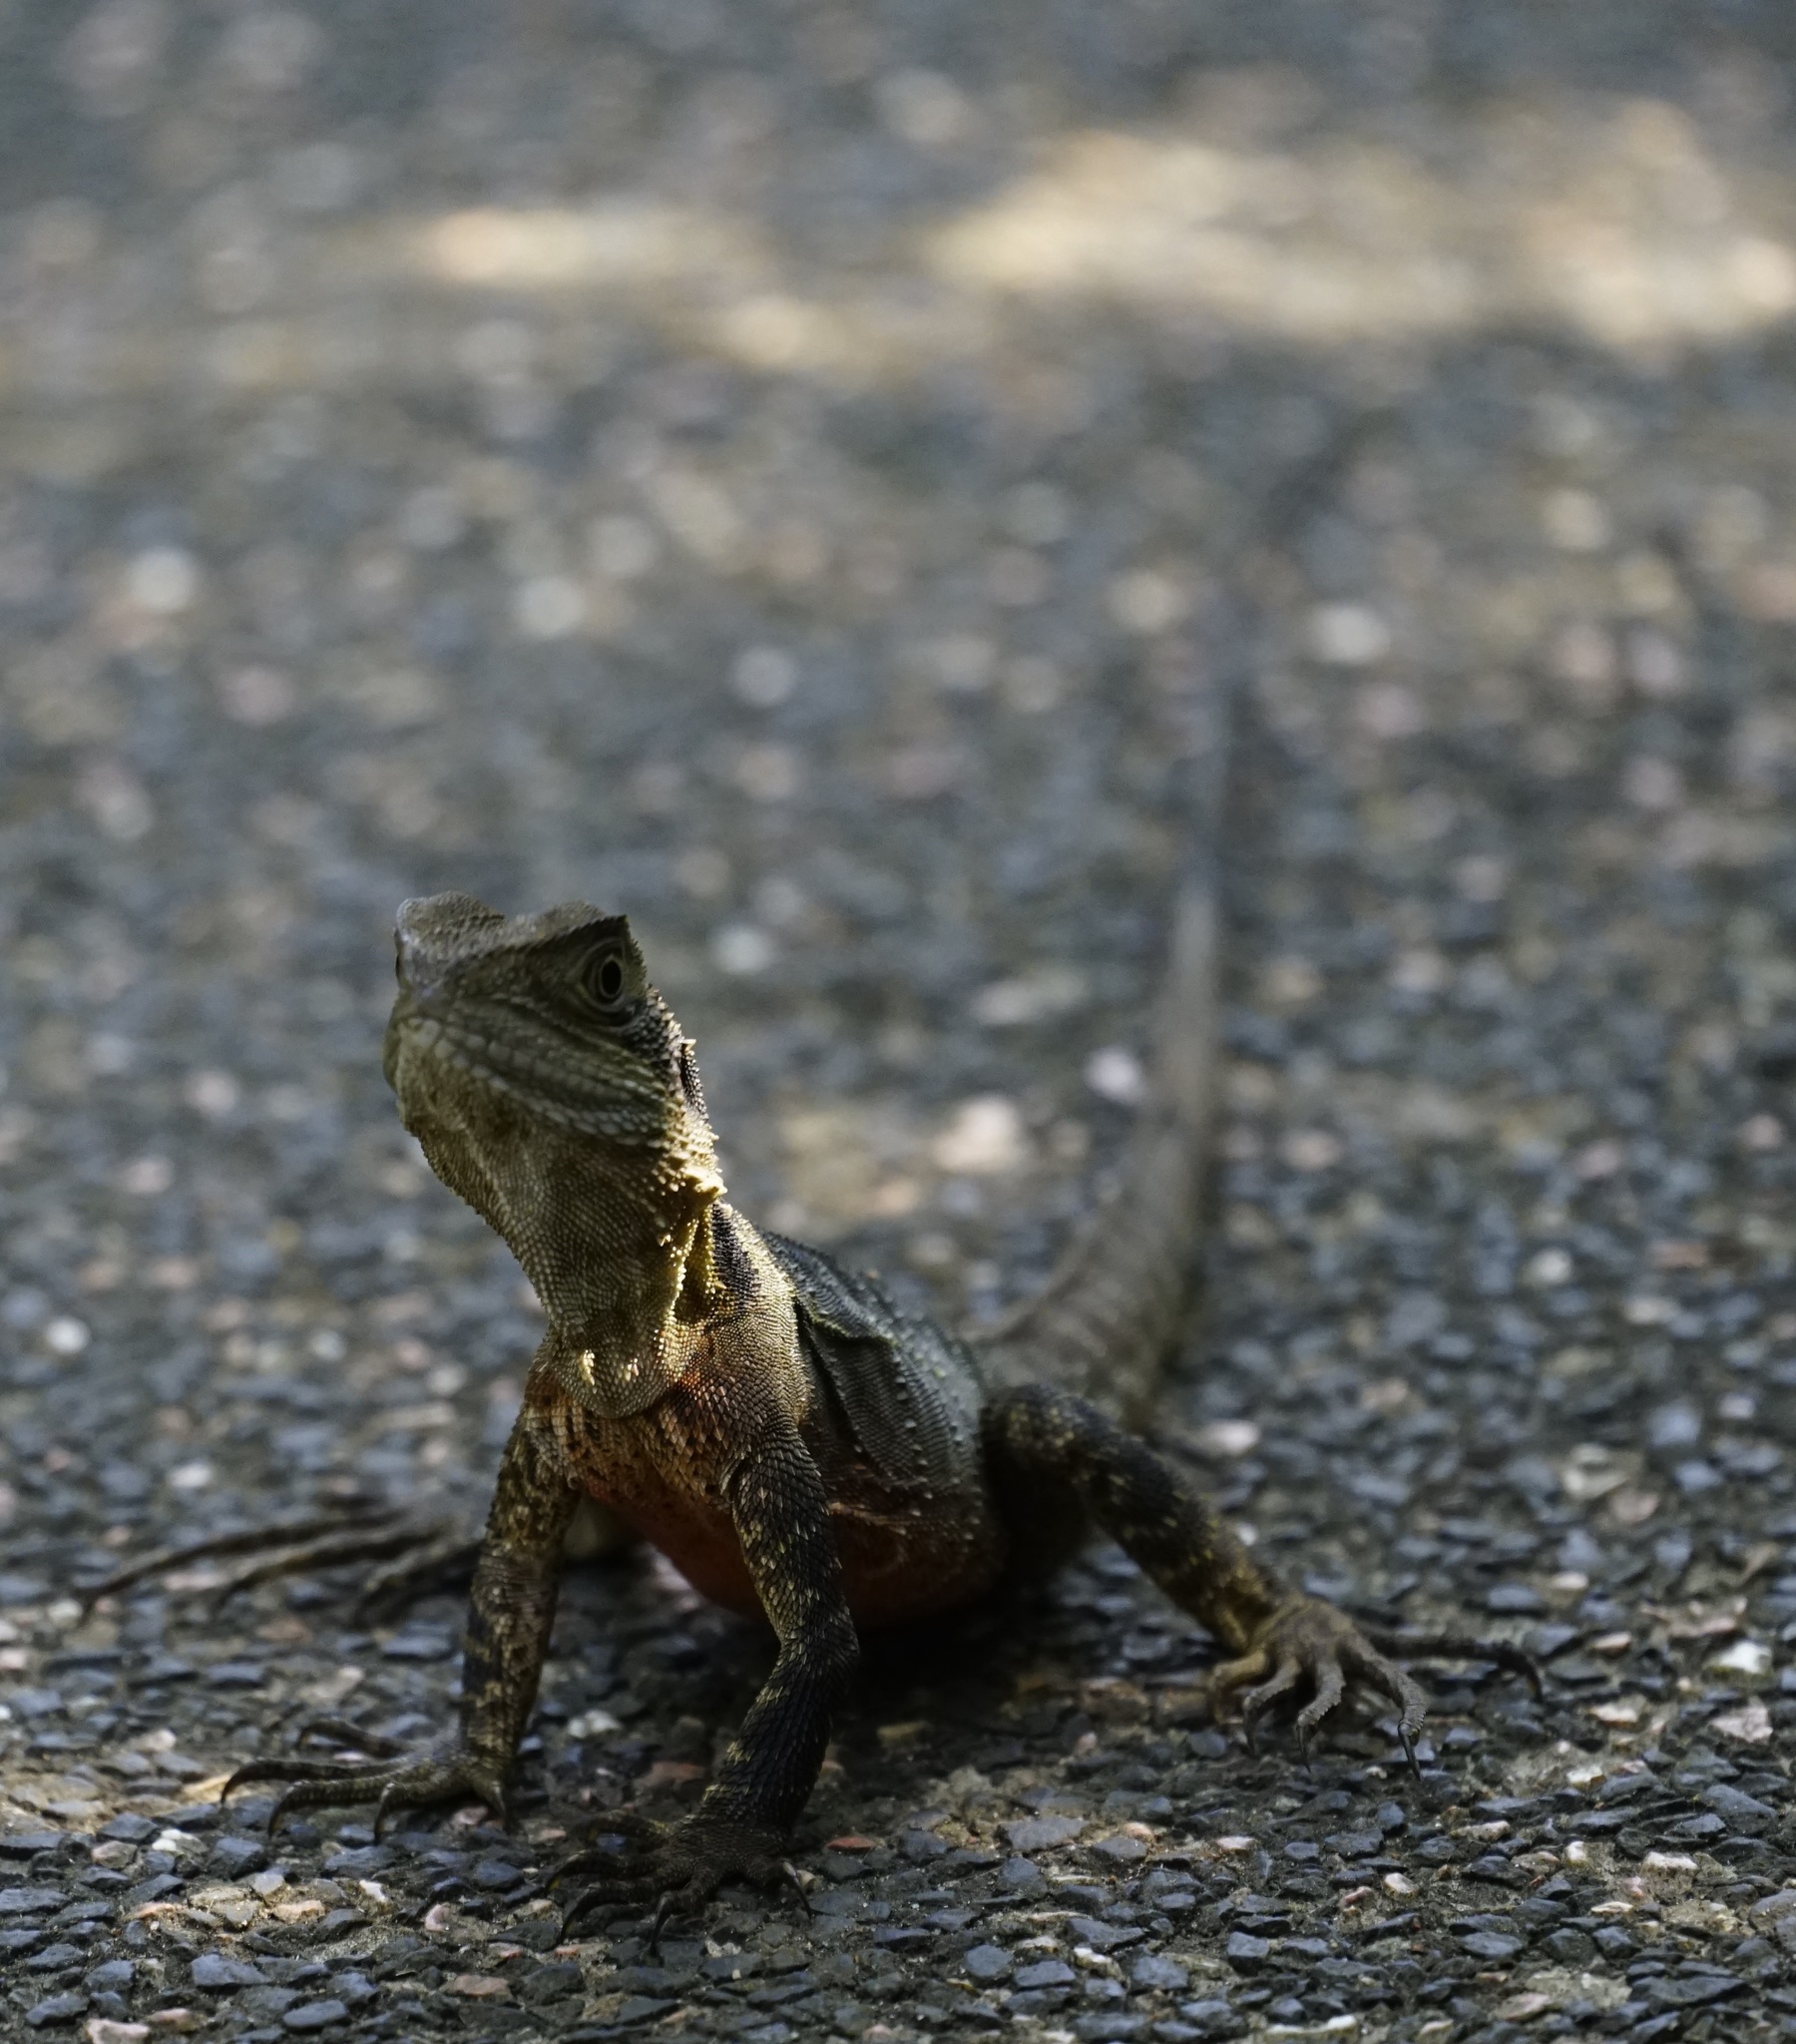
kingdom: Animalia
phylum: Chordata
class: Squamata
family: Agamidae
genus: Intellagama
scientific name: Intellagama lesueurii
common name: Eastern water dragon
